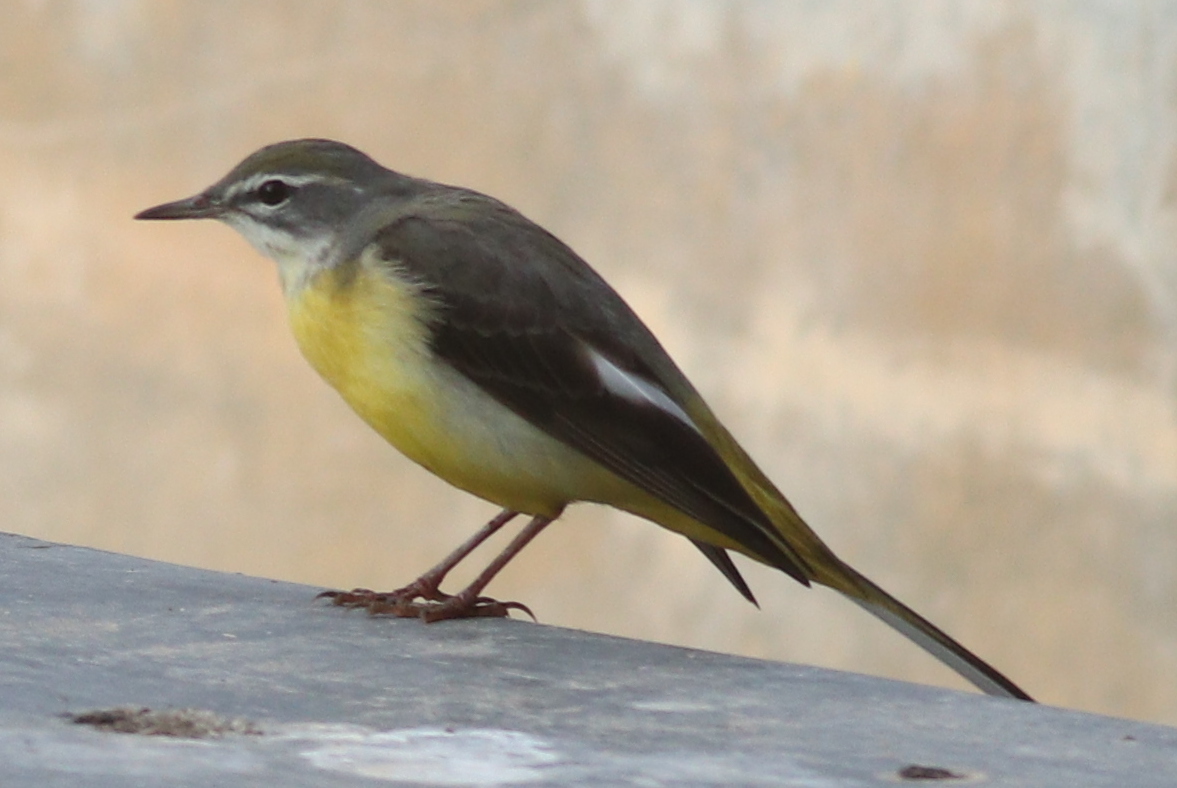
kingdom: Animalia
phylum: Chordata
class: Aves
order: Passeriformes
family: Motacillidae
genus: Motacilla
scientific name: Motacilla cinerea
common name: Grey wagtail
